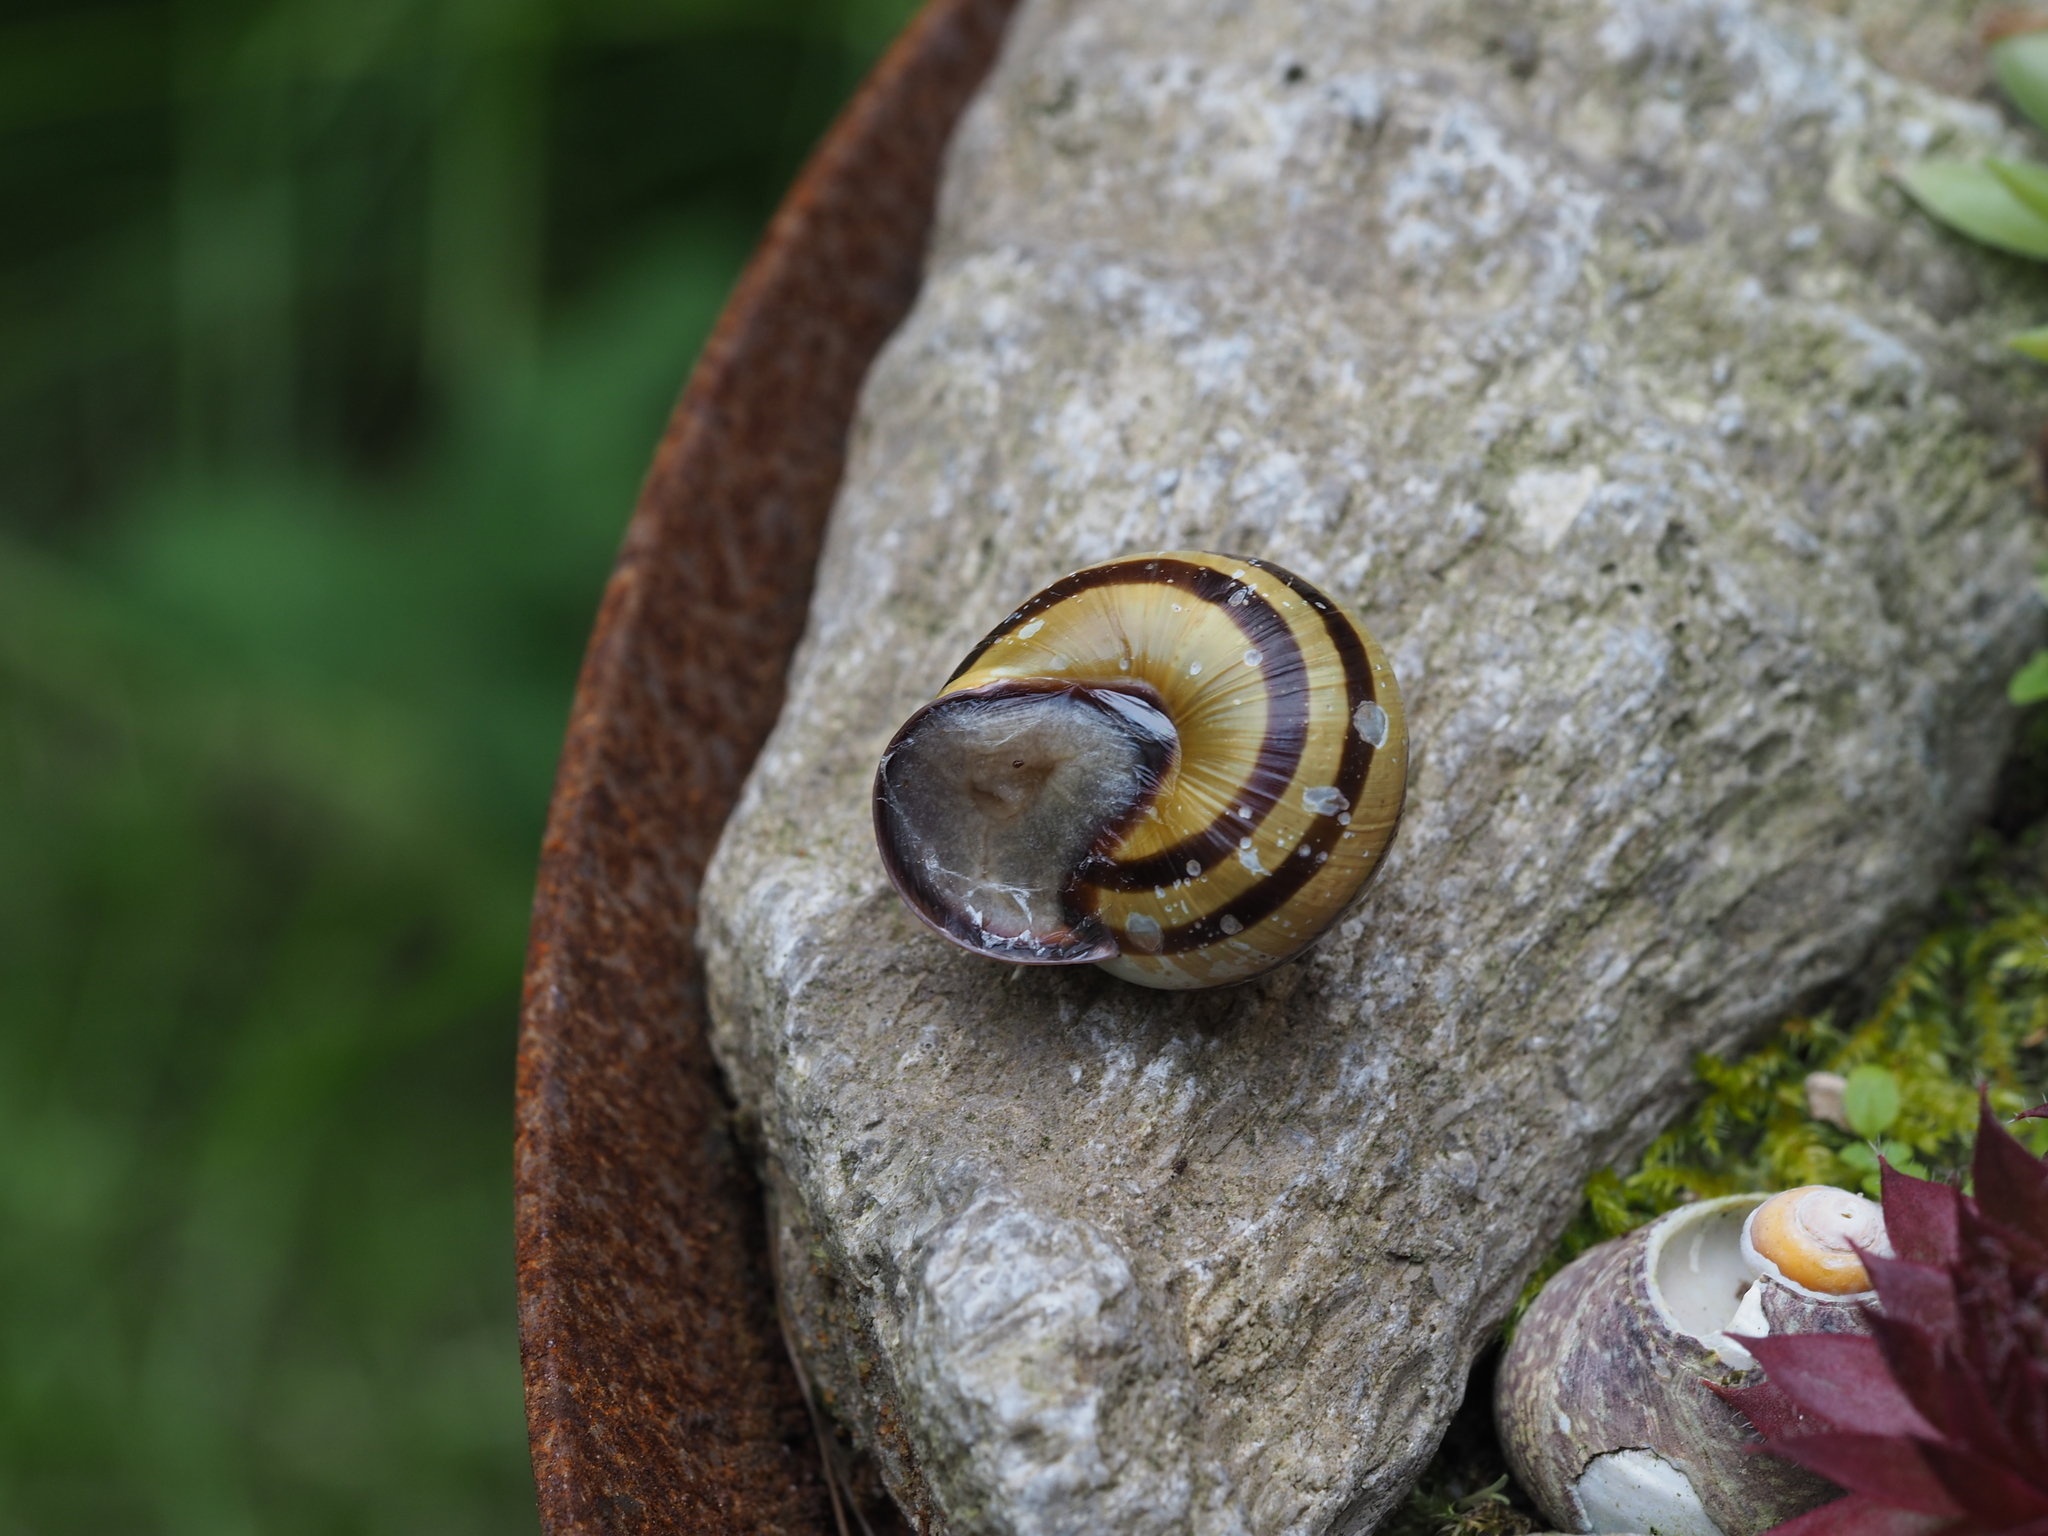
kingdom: Animalia
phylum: Mollusca
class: Gastropoda
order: Stylommatophora
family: Helicidae
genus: Cepaea
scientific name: Cepaea nemoralis
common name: Grovesnail
